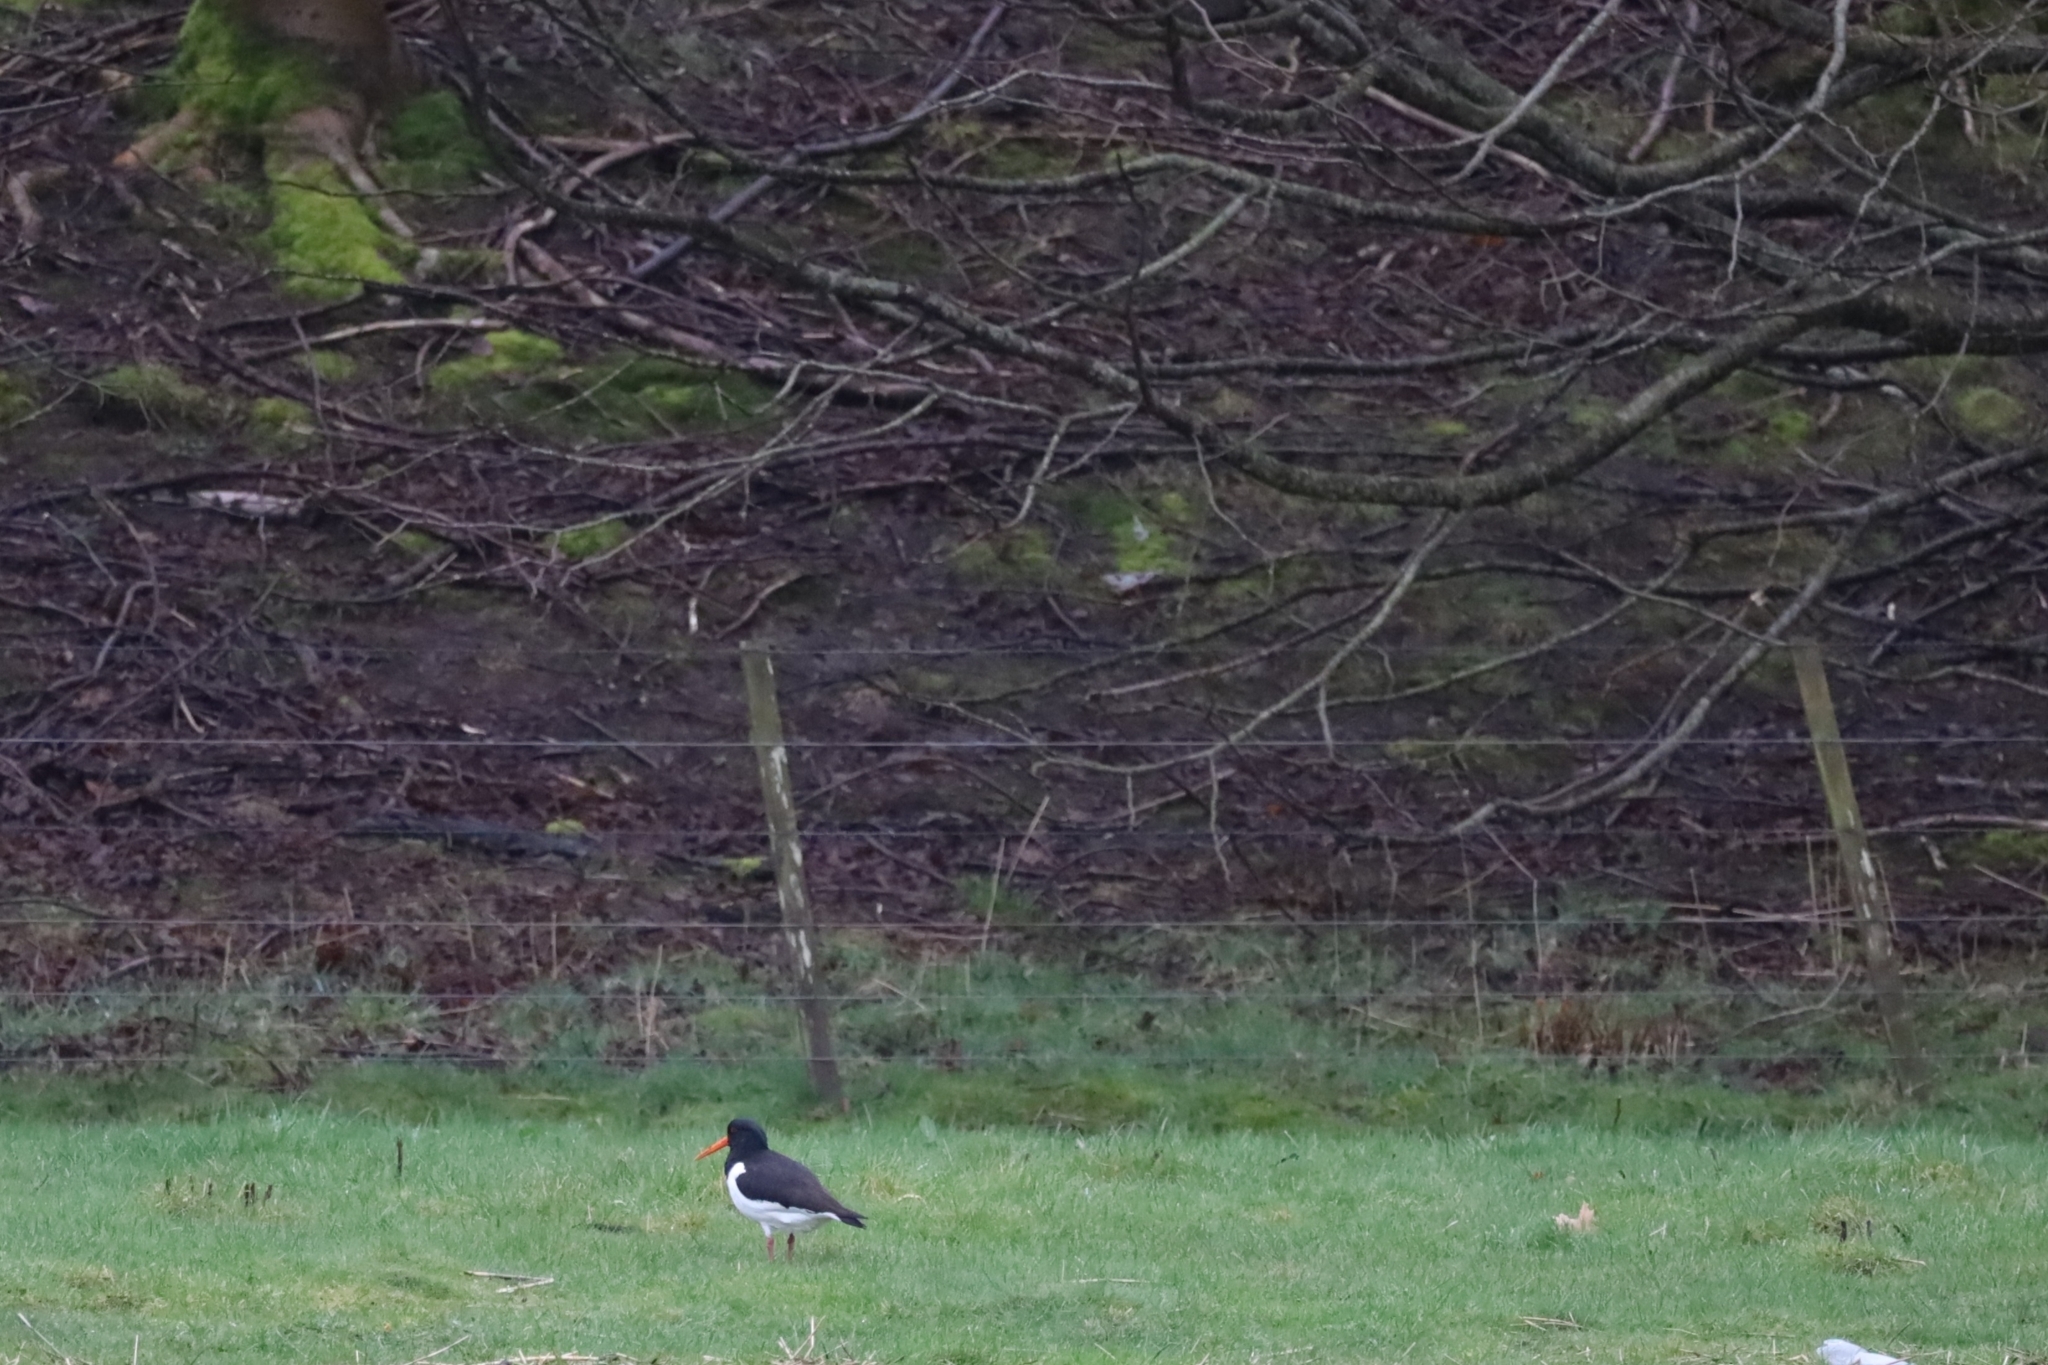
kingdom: Animalia
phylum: Chordata
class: Aves
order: Charadriiformes
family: Haematopodidae
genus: Haematopus
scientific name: Haematopus ostralegus
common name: Eurasian oystercatcher
